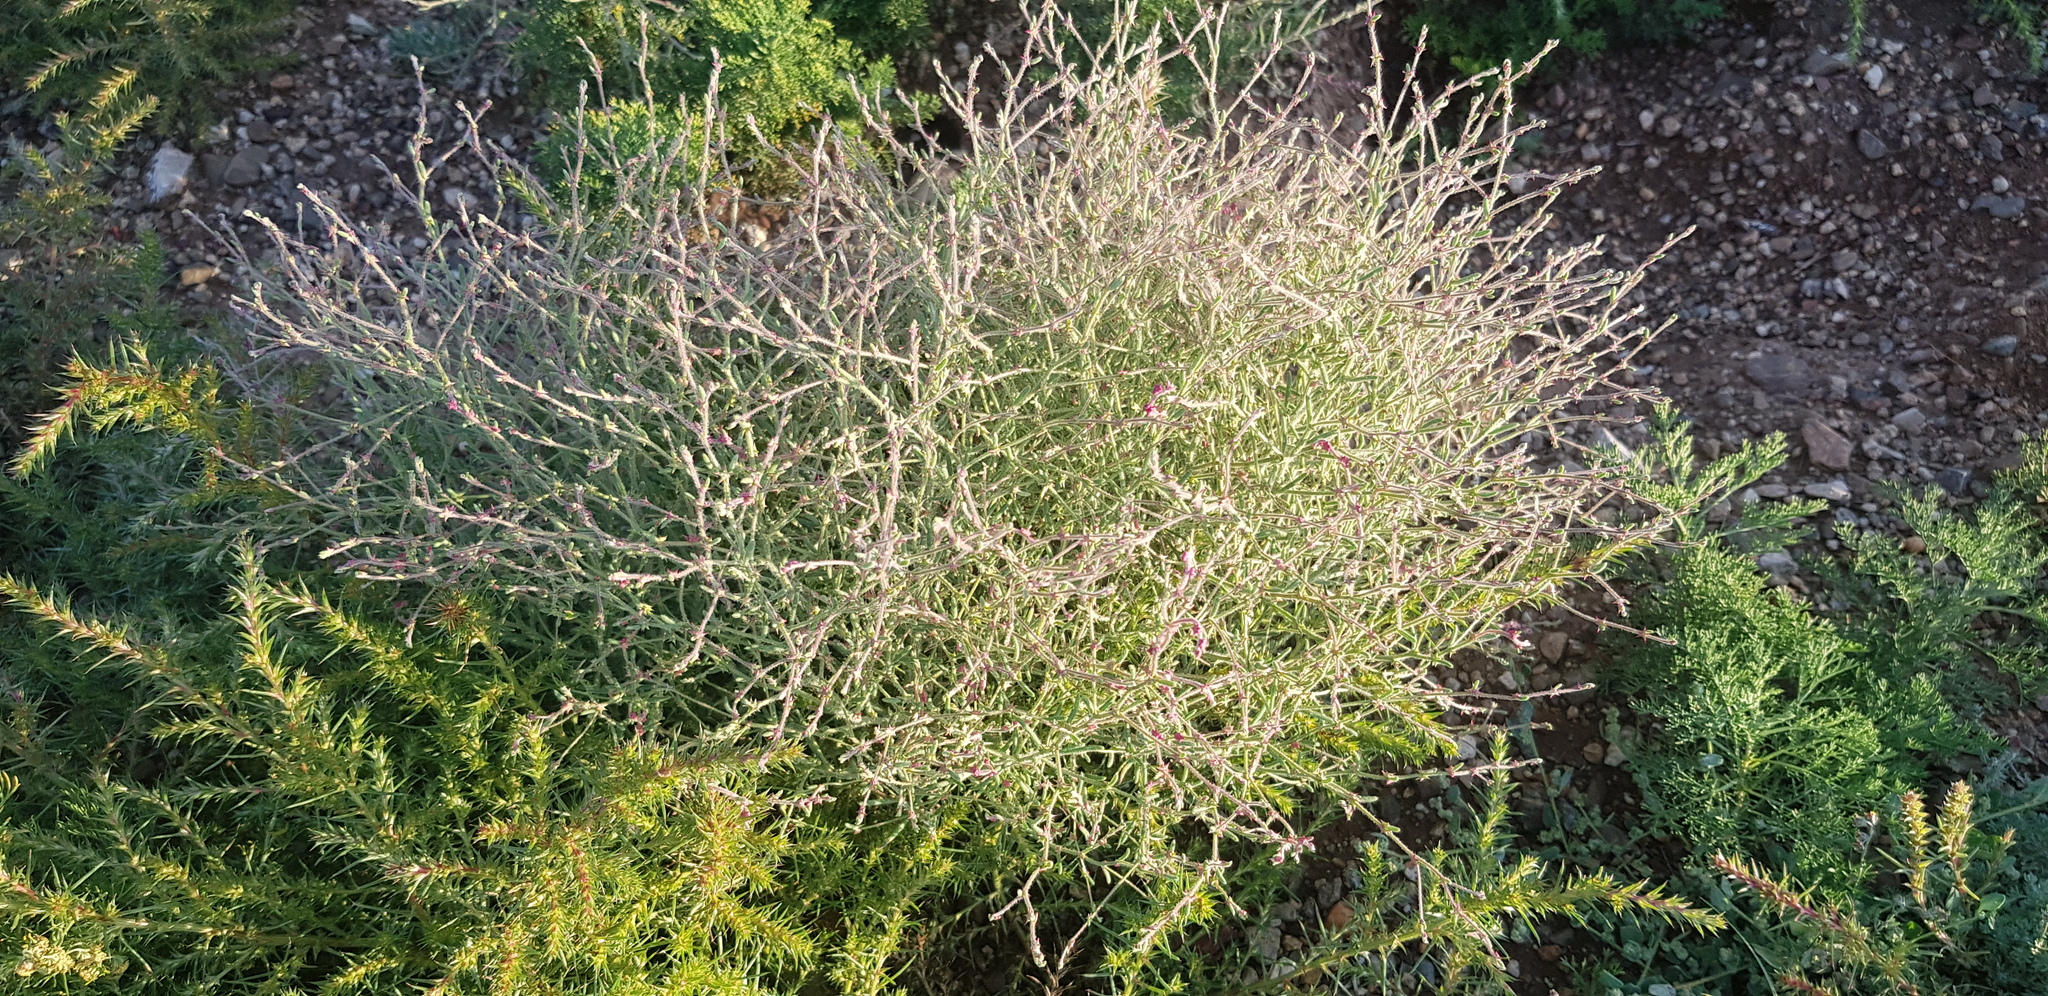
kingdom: Plantae
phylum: Tracheophyta
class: Magnoliopsida
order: Caryophyllales
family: Amaranthaceae
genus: Grubovia
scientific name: Grubovia dasyphylla
